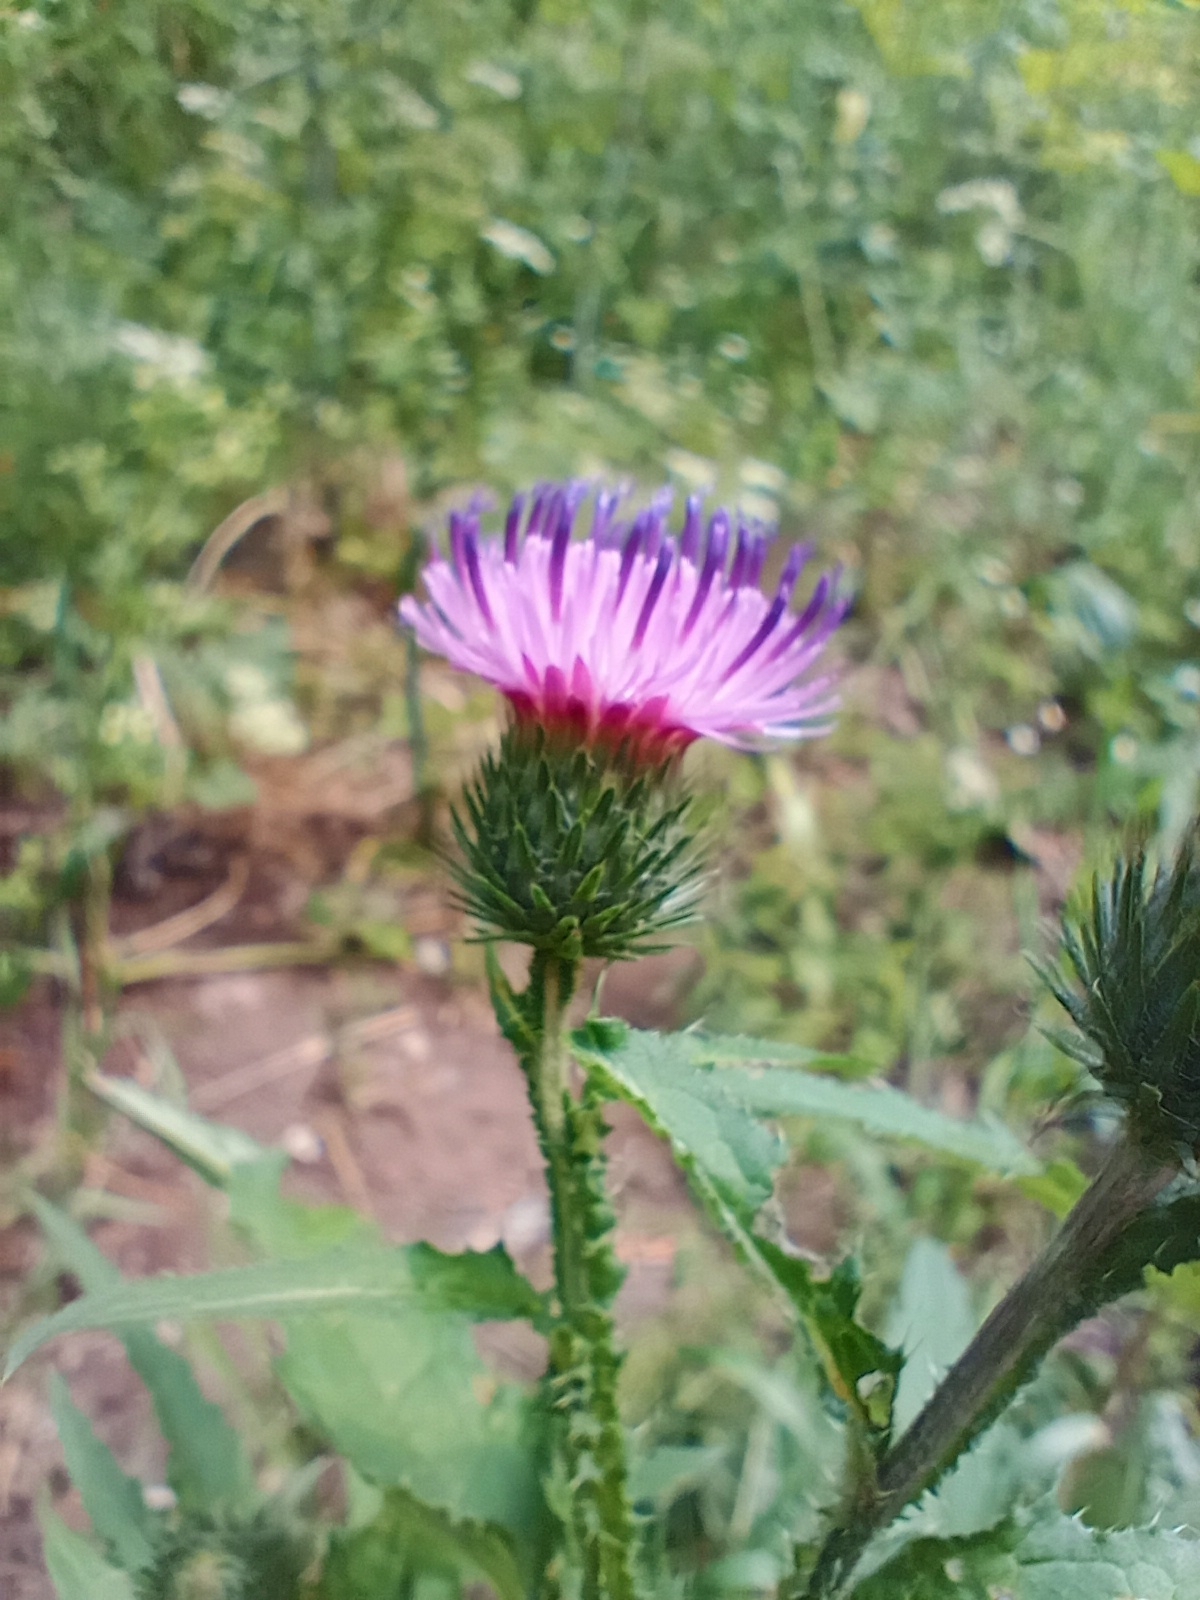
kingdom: Plantae
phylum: Tracheophyta
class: Magnoliopsida
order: Asterales
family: Asteraceae
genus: Carduus
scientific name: Carduus crispus
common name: Welted thistle
